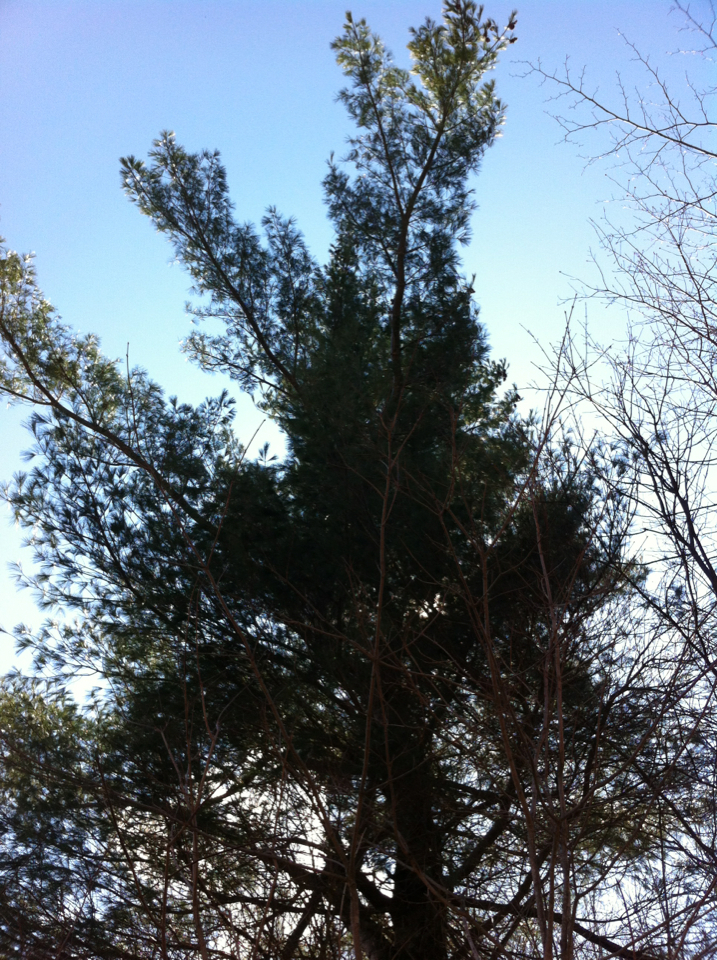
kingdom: Plantae
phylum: Tracheophyta
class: Pinopsida
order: Pinales
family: Pinaceae
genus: Pinus
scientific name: Pinus strobus
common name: Weymouth pine
